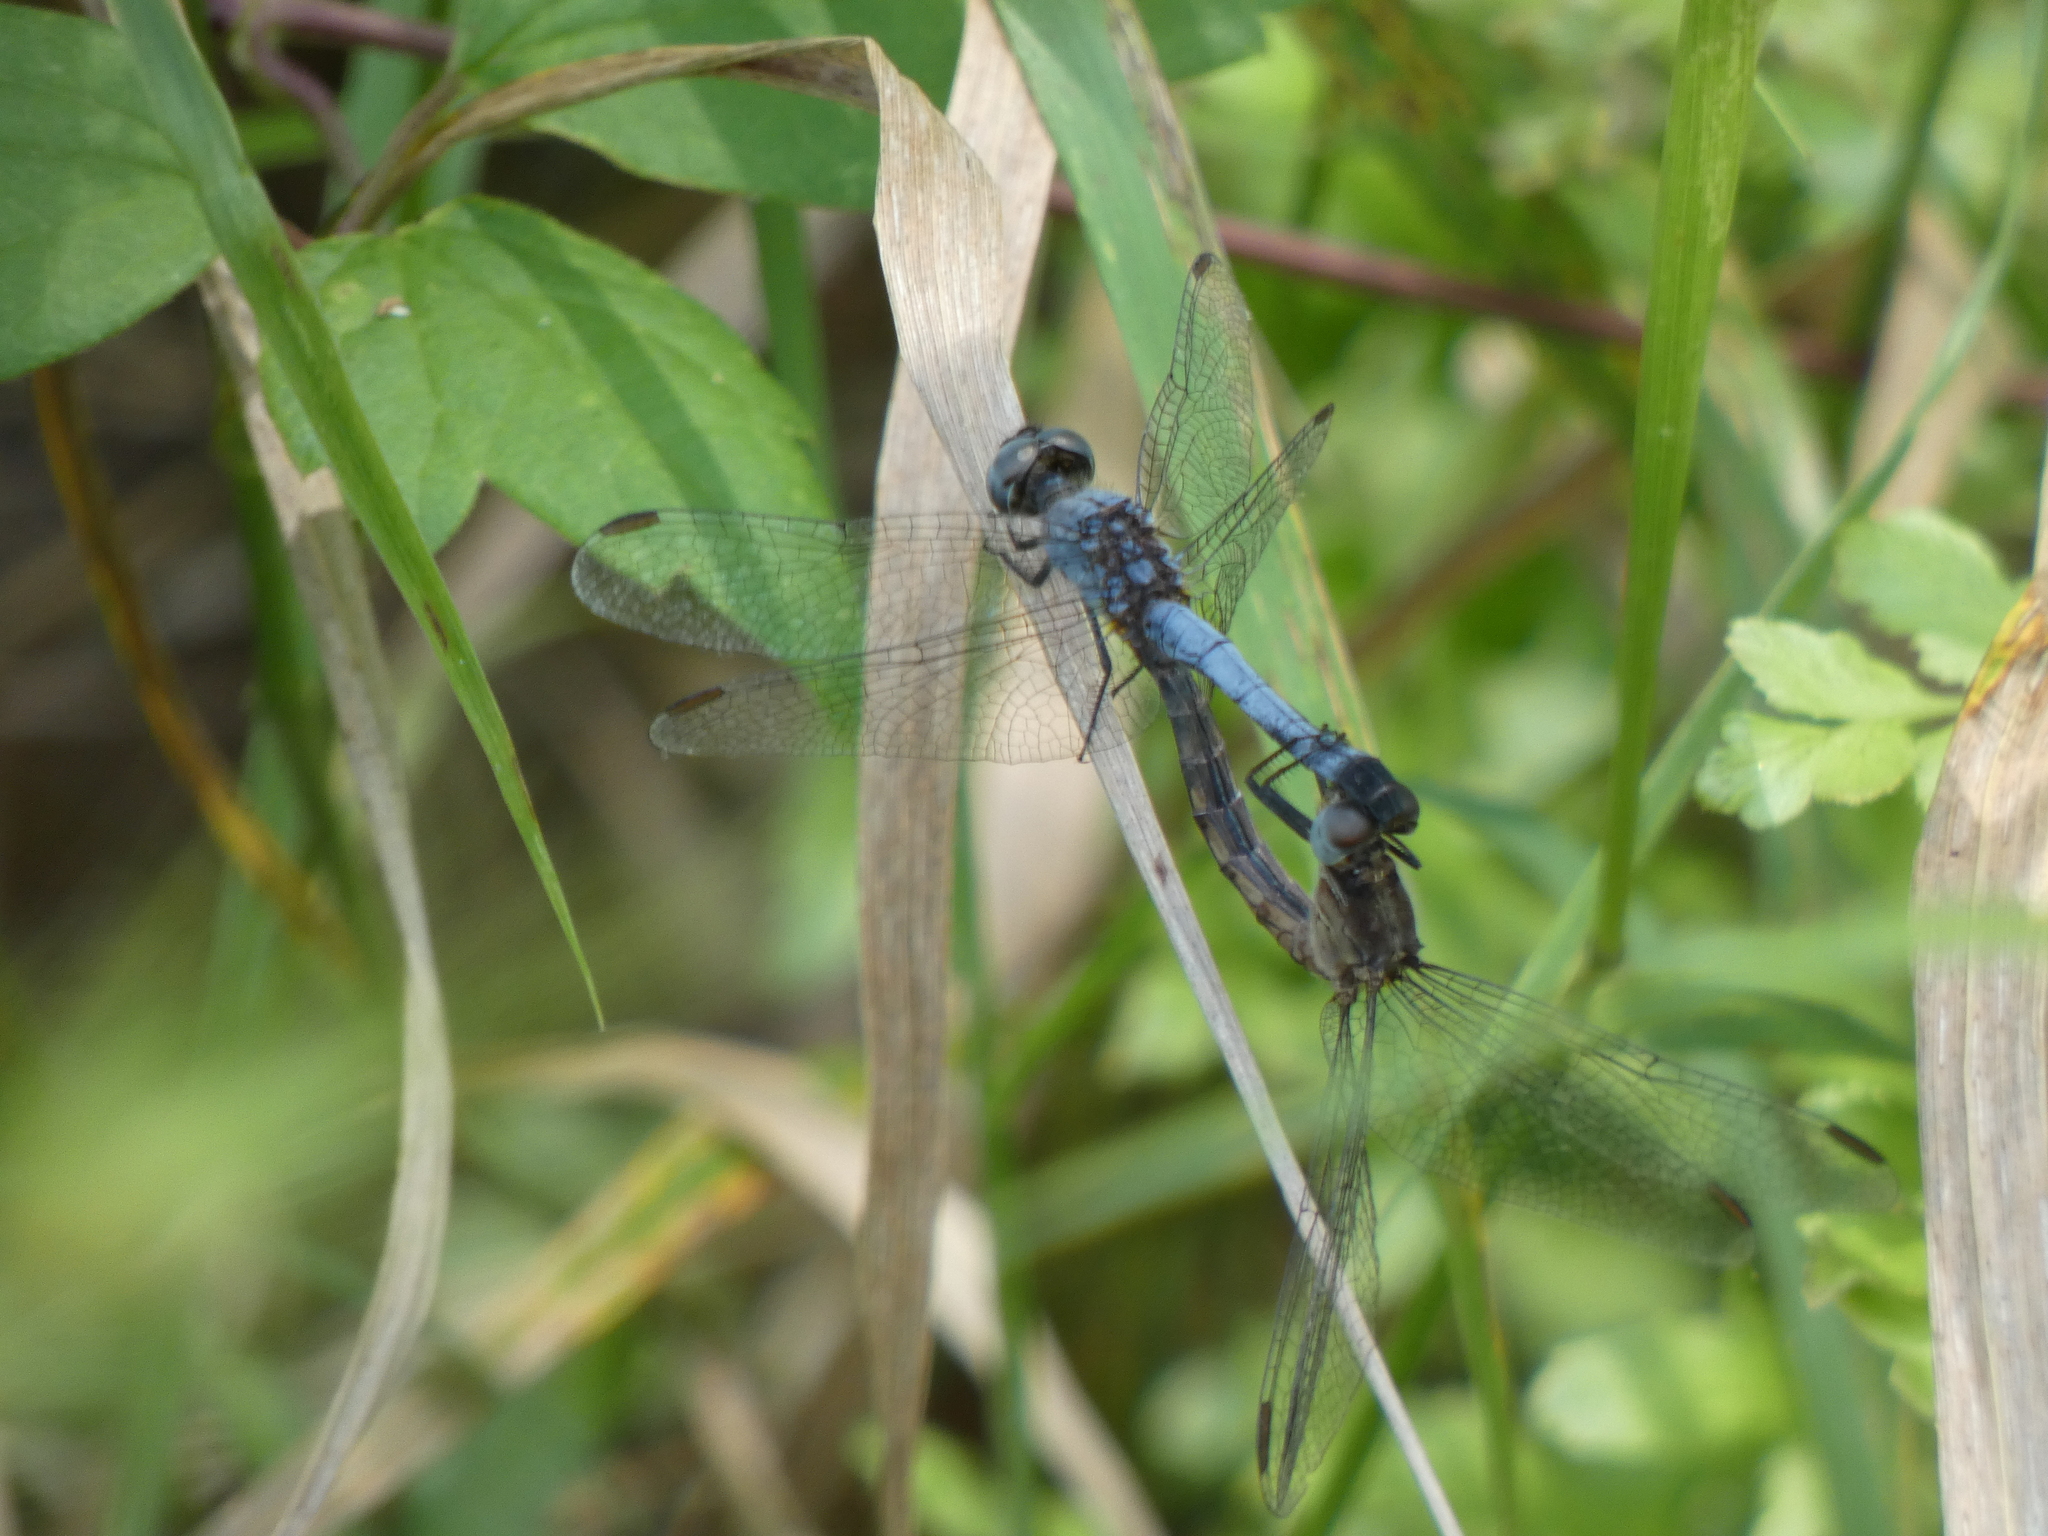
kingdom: Animalia
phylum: Arthropoda
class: Insecta
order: Odonata
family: Libellulidae
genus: Erythrodiplax
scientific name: Erythrodiplax minuscula
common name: Little blue dragonlet
